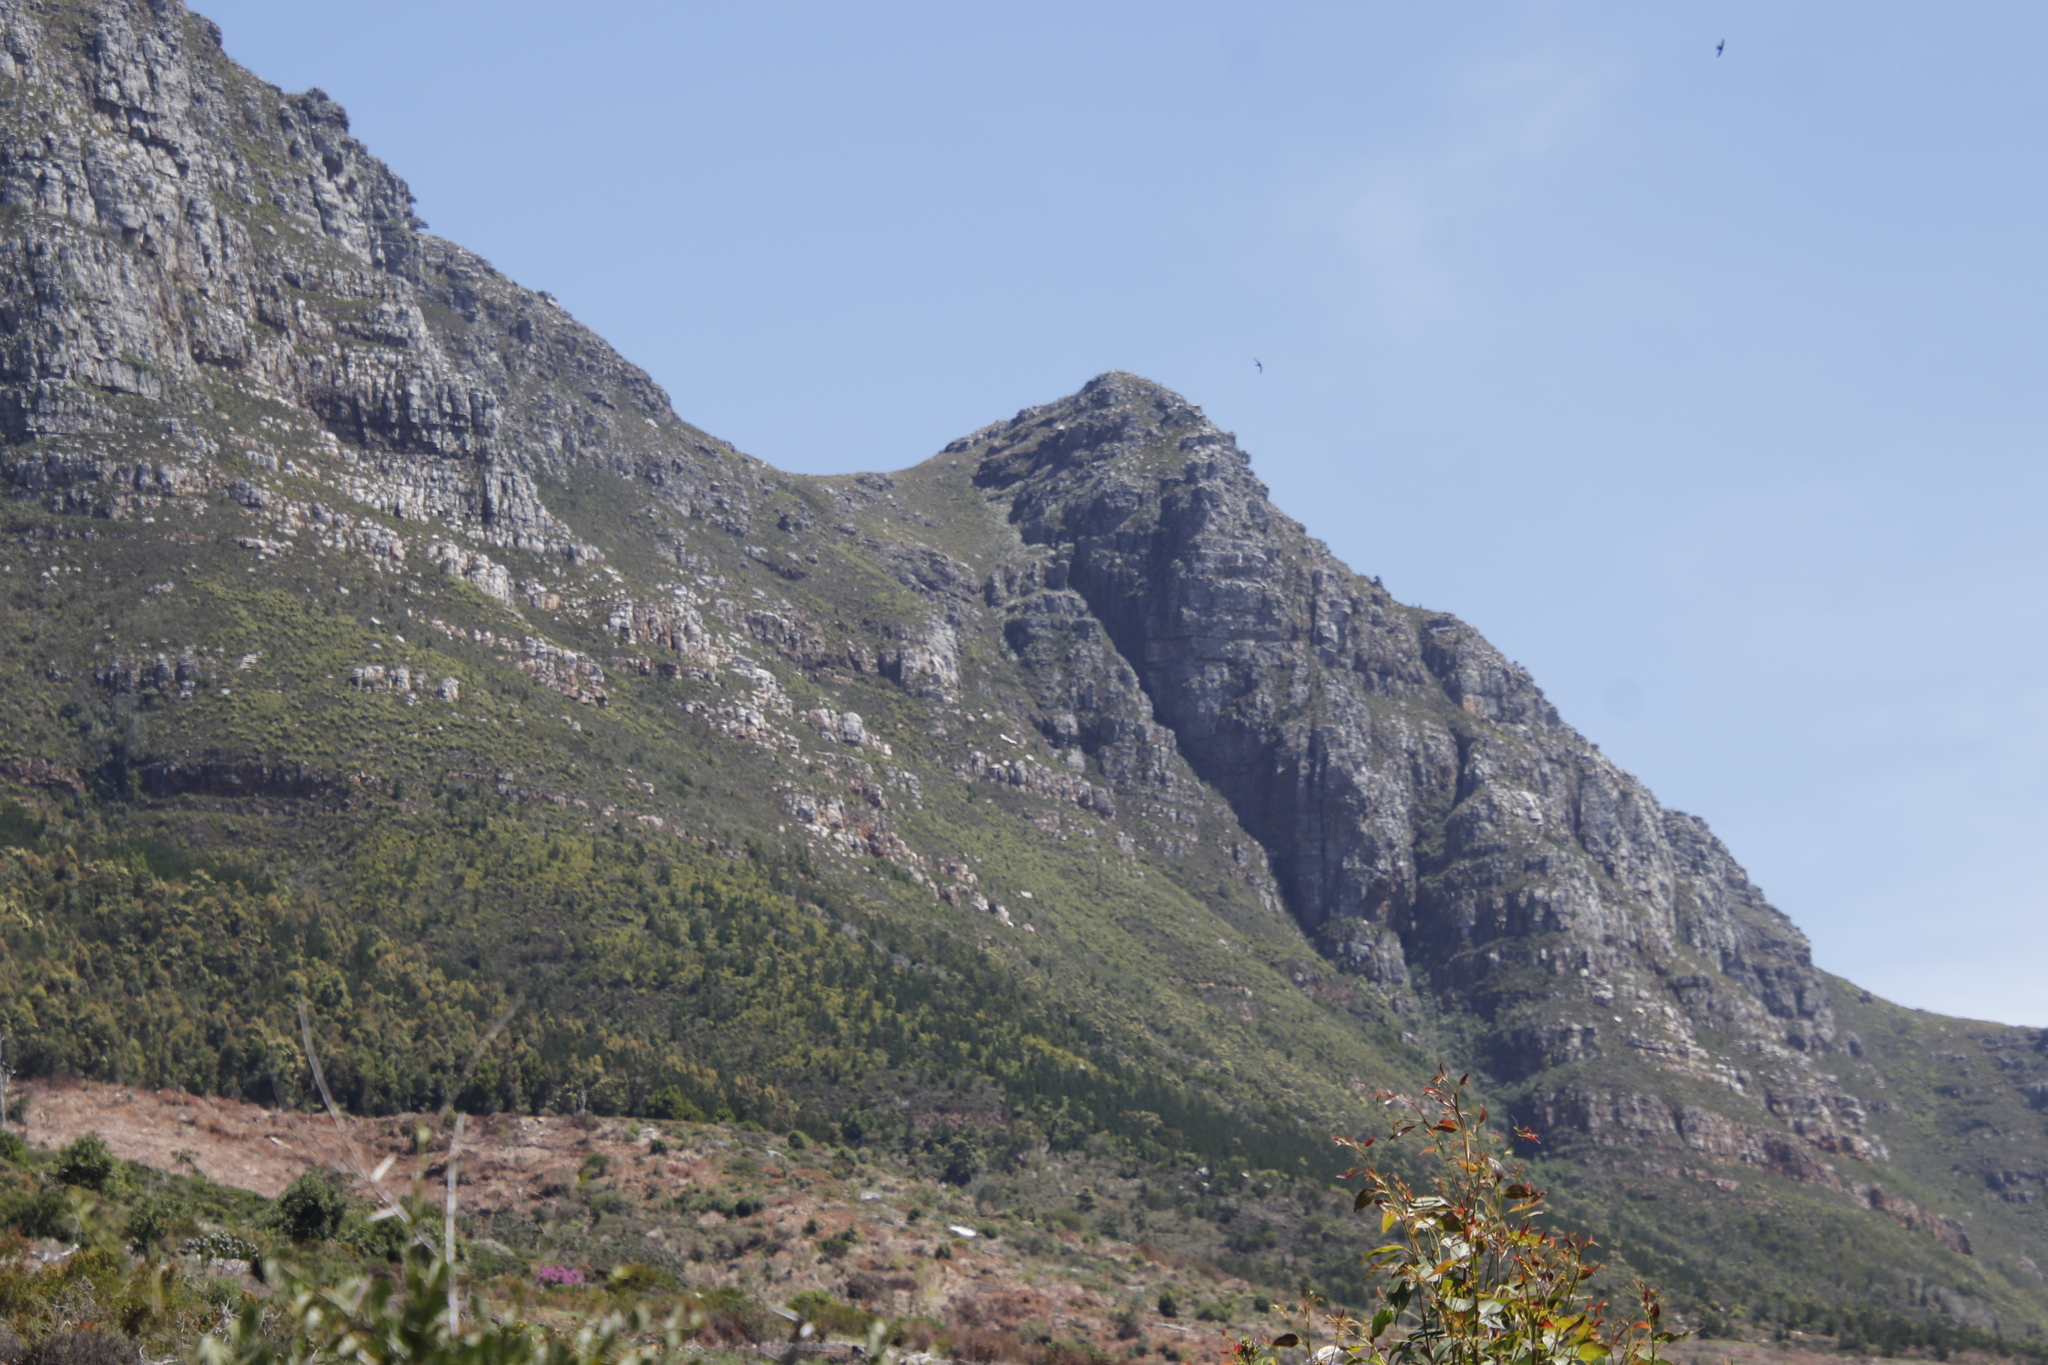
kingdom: Plantae
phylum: Tracheophyta
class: Pinopsida
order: Pinales
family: Pinaceae
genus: Pinus
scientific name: Pinus radiata
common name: Monterey pine
